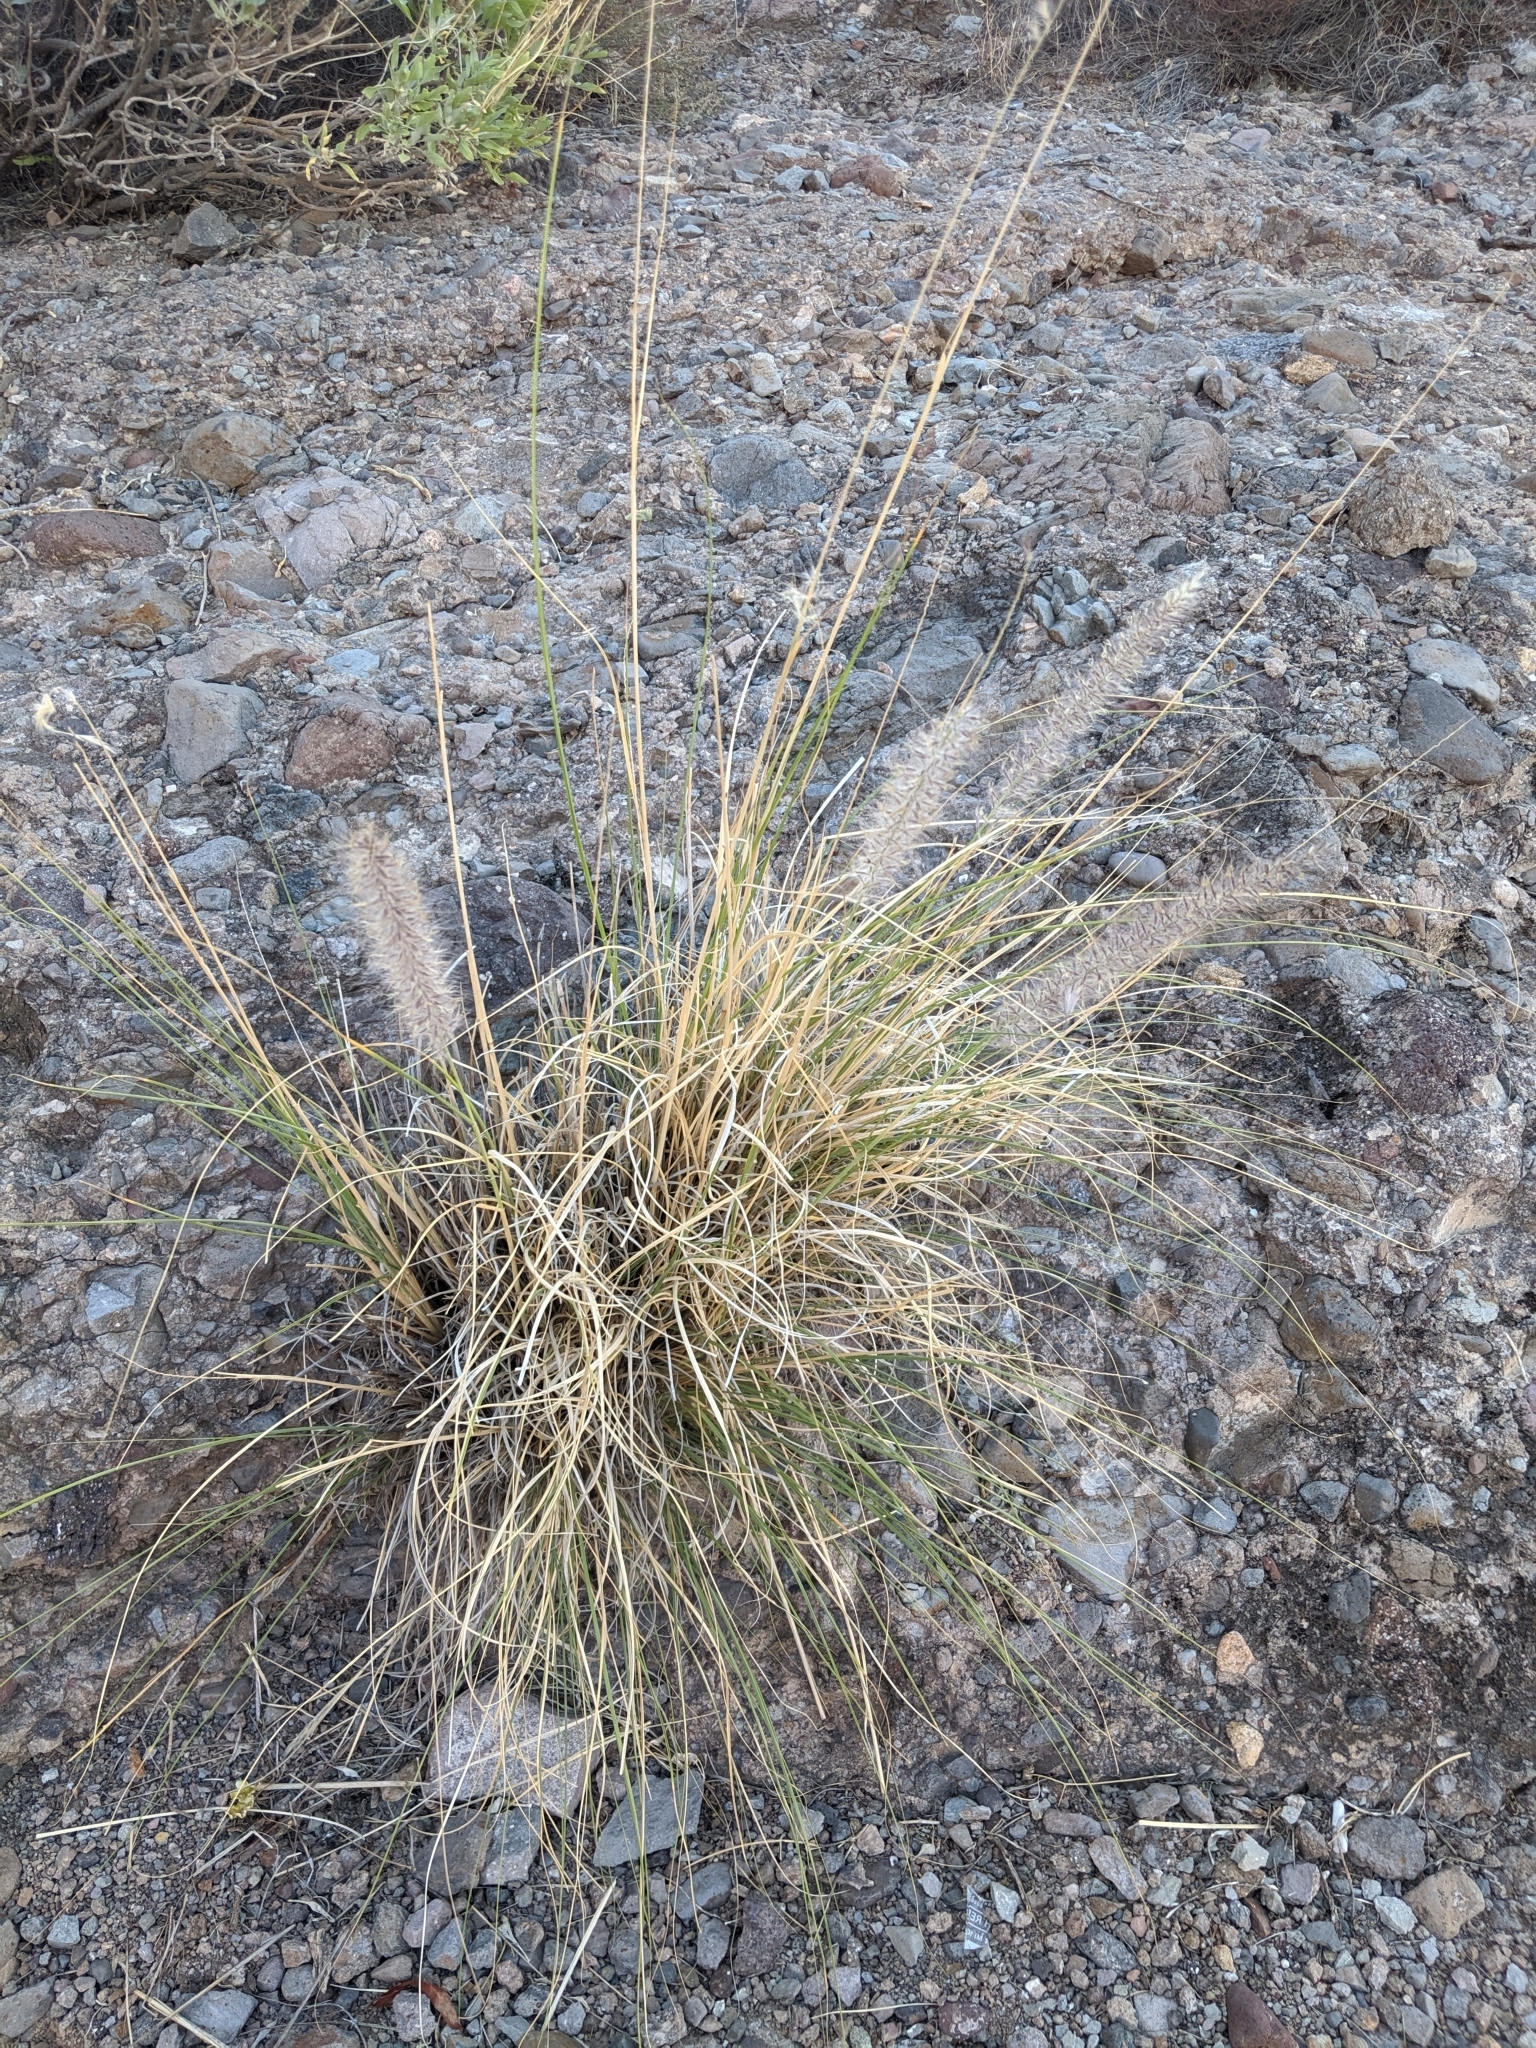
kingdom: Plantae
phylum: Tracheophyta
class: Liliopsida
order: Poales
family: Poaceae
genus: Cenchrus
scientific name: Cenchrus setaceus
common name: Crimson fountaingrass
